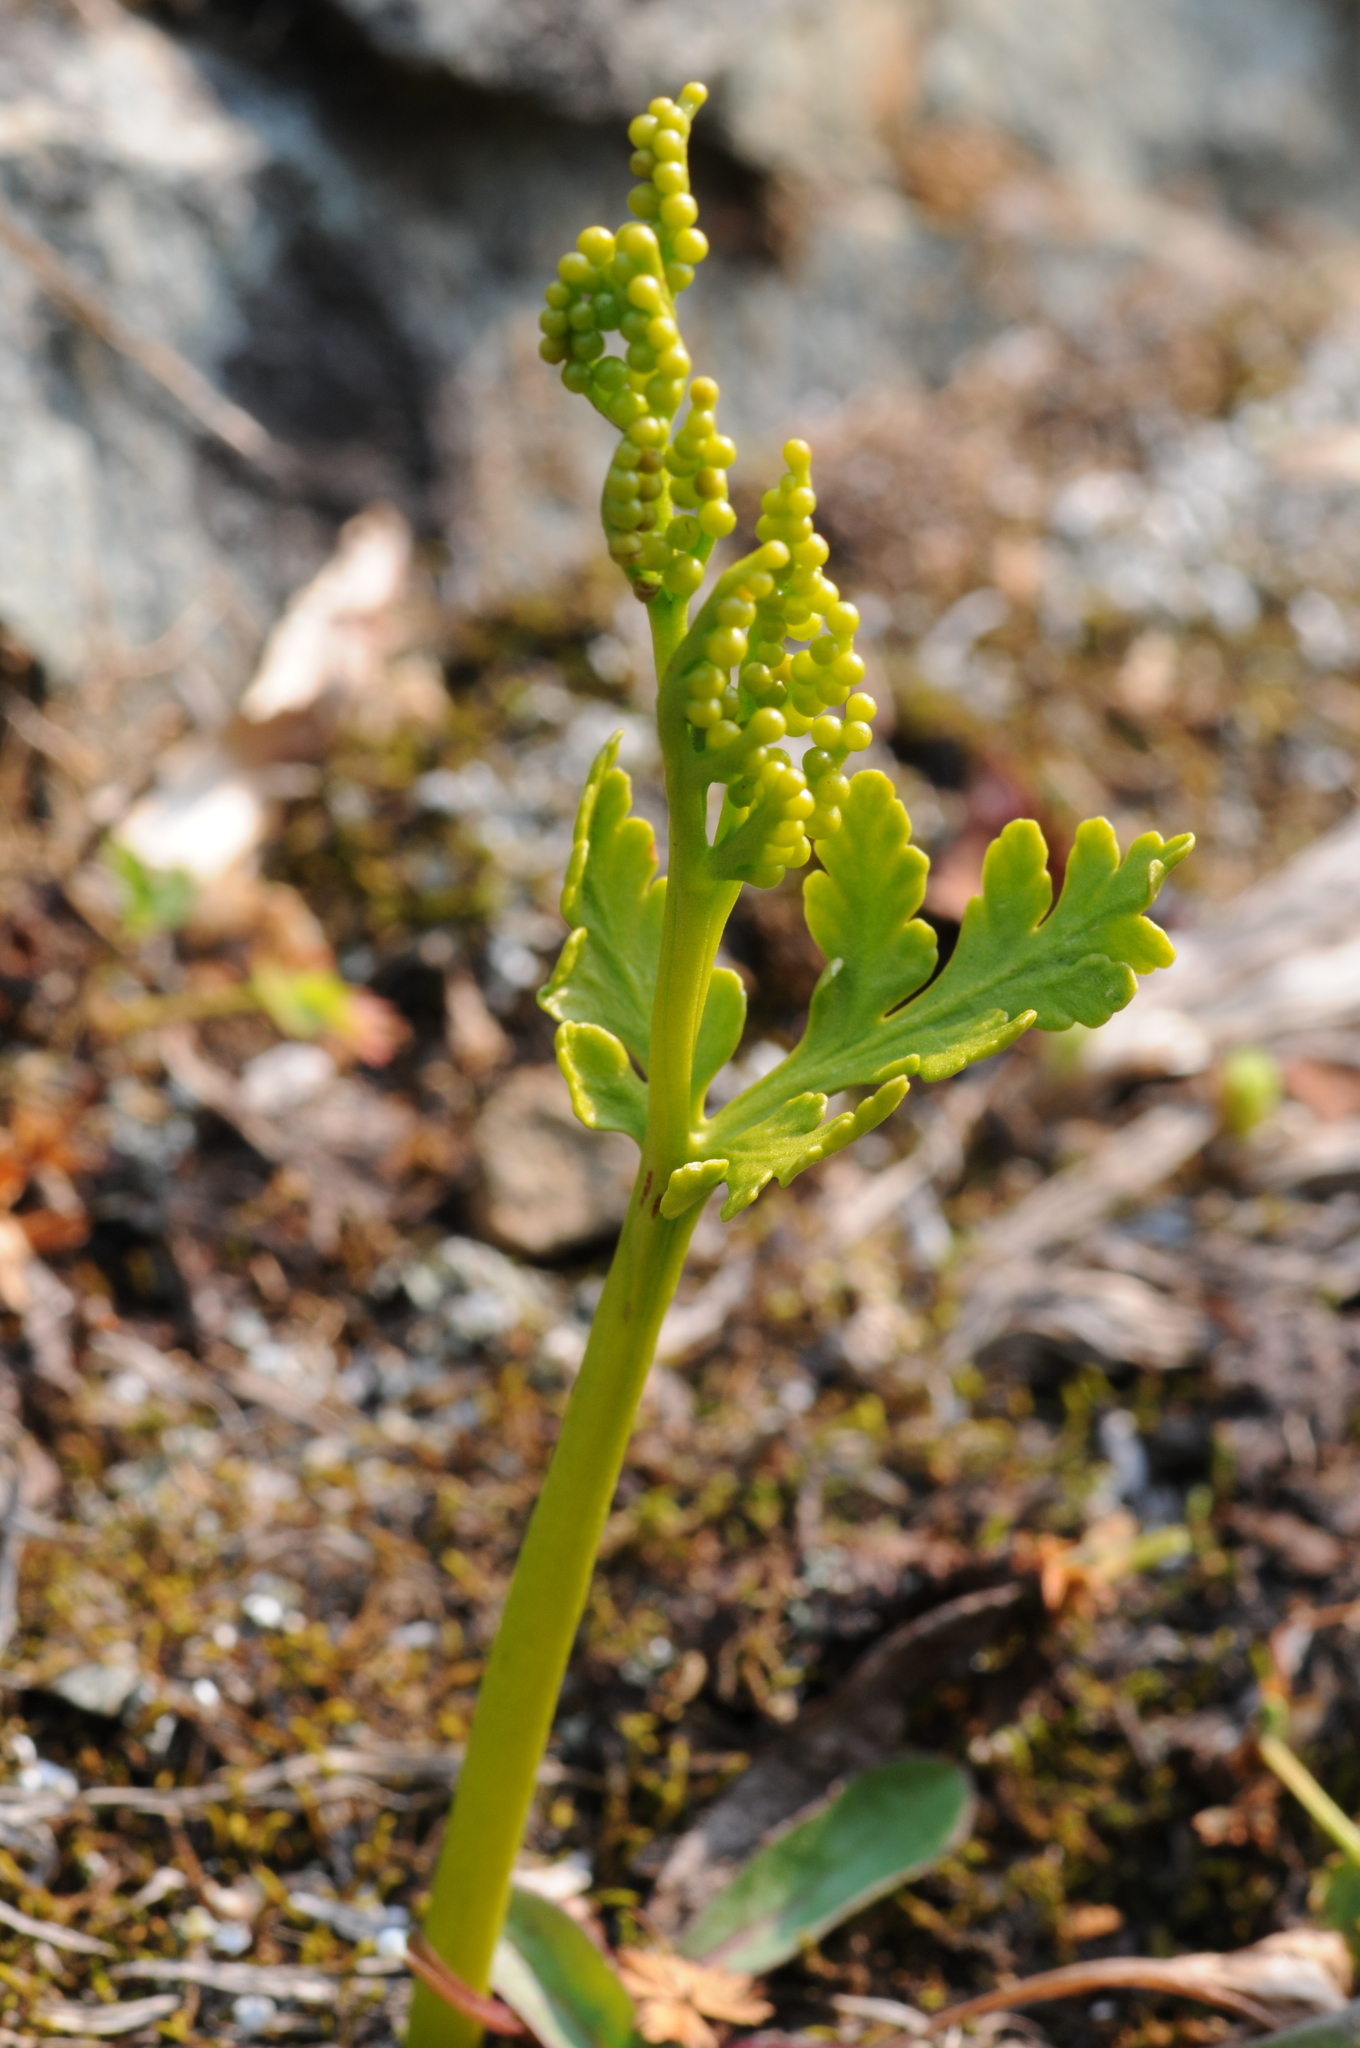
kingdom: Plantae
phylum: Tracheophyta
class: Polypodiopsida
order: Ophioglossales
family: Ophioglossaceae
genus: Botrychium
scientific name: Botrychium lanceolatum
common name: Lance-leaved moonwort
